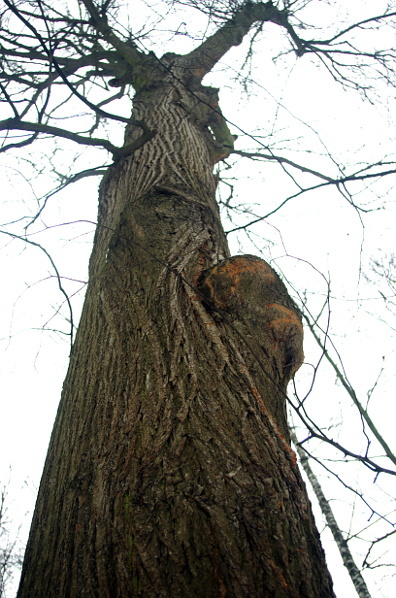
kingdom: Plantae
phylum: Tracheophyta
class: Magnoliopsida
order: Fagales
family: Fagaceae
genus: Quercus
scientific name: Quercus robur
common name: Pedunculate oak
